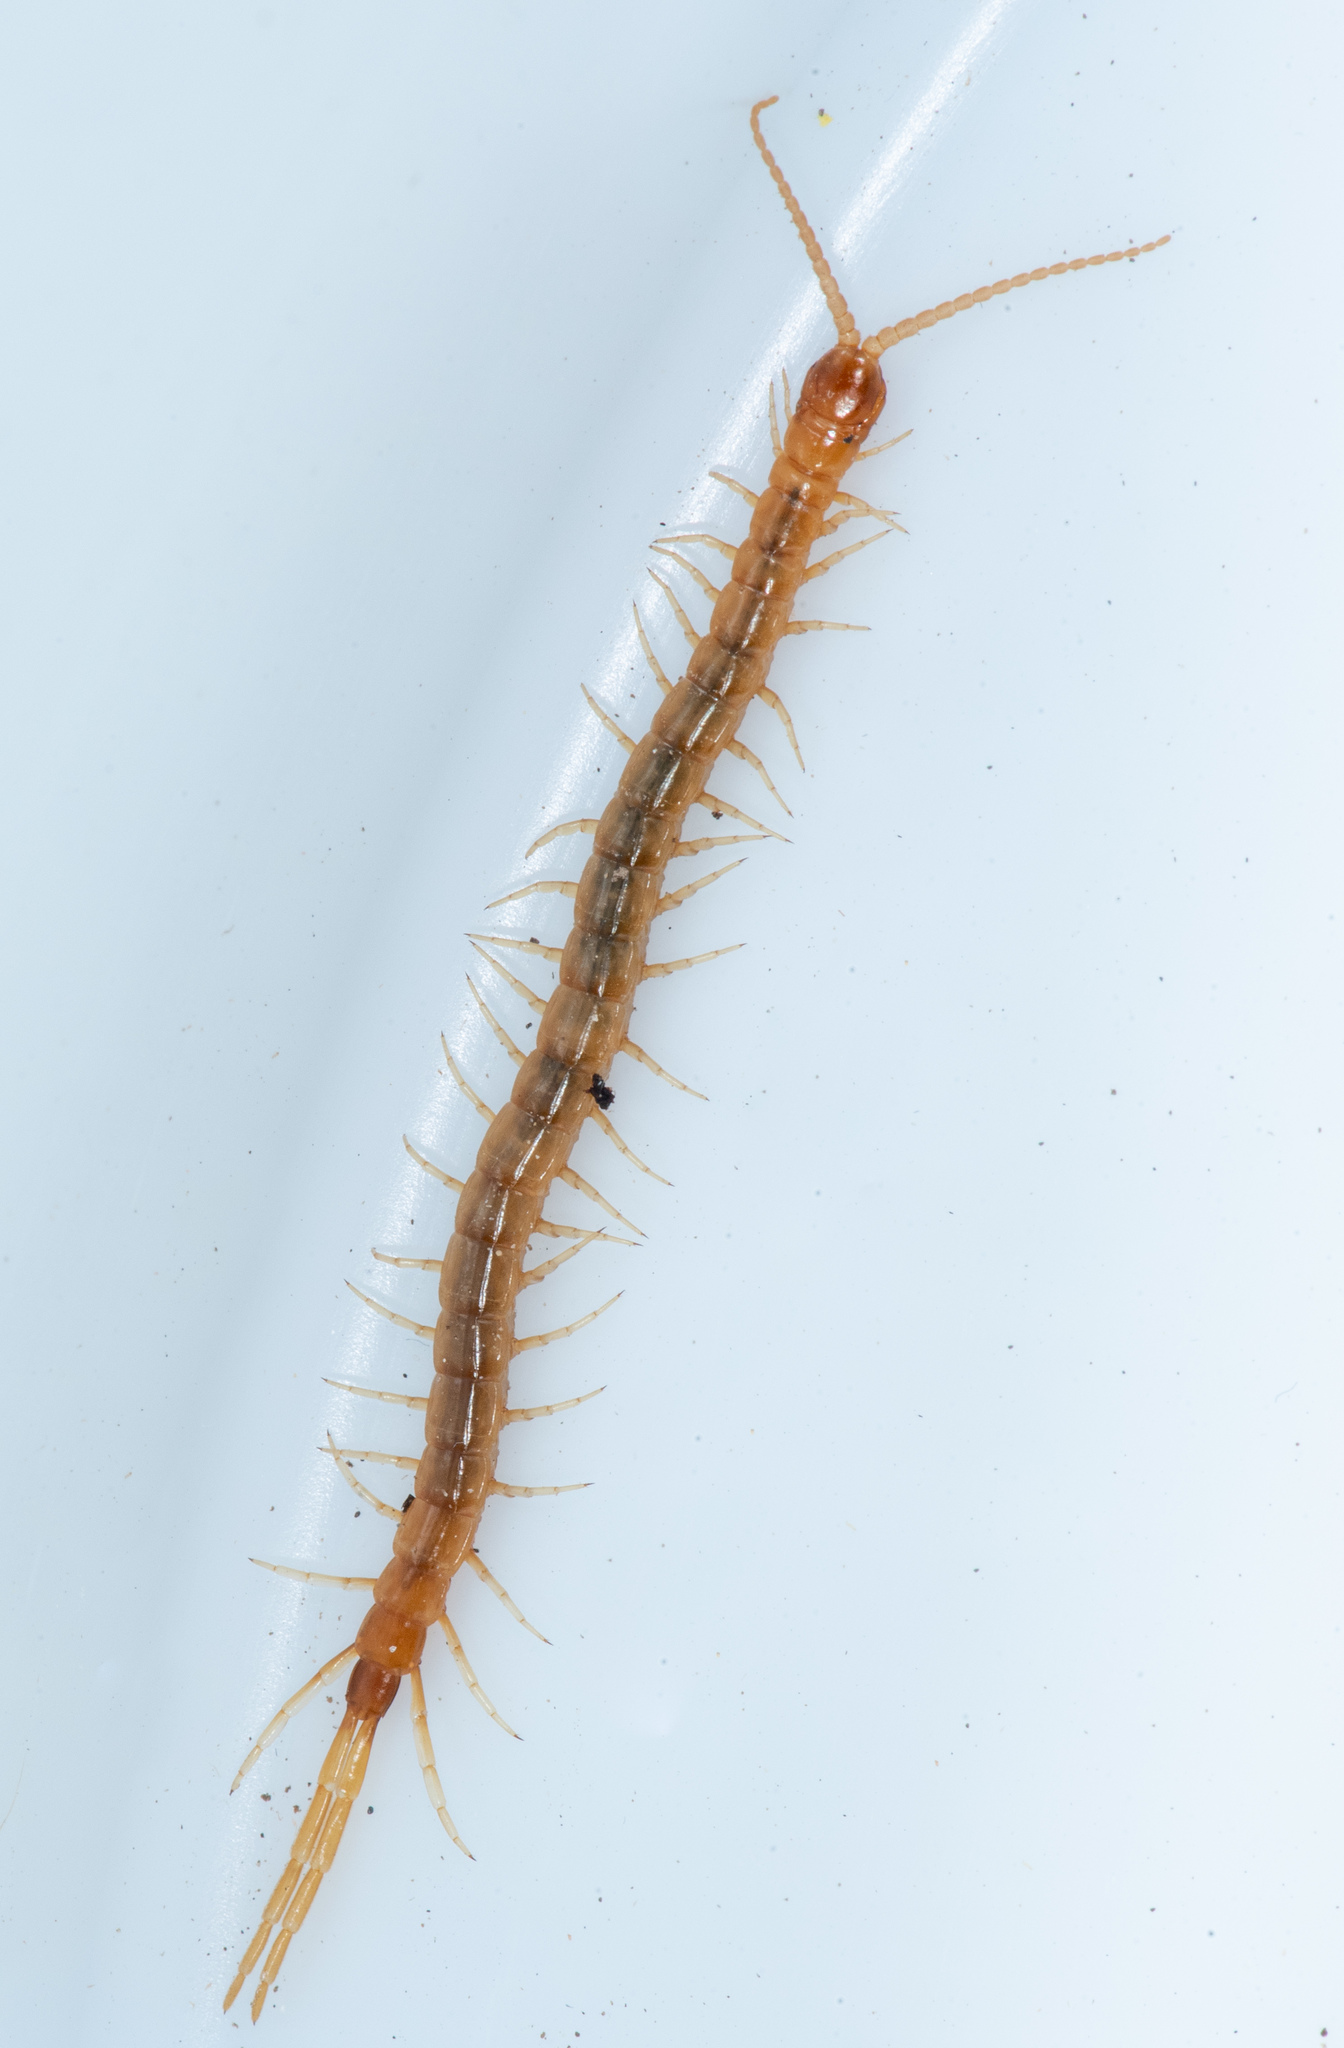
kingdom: Animalia
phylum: Arthropoda
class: Chilopoda
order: Scolopendromorpha
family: Scolopocryptopidae
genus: Scolopocryptops
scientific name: Scolopocryptops gracilis
